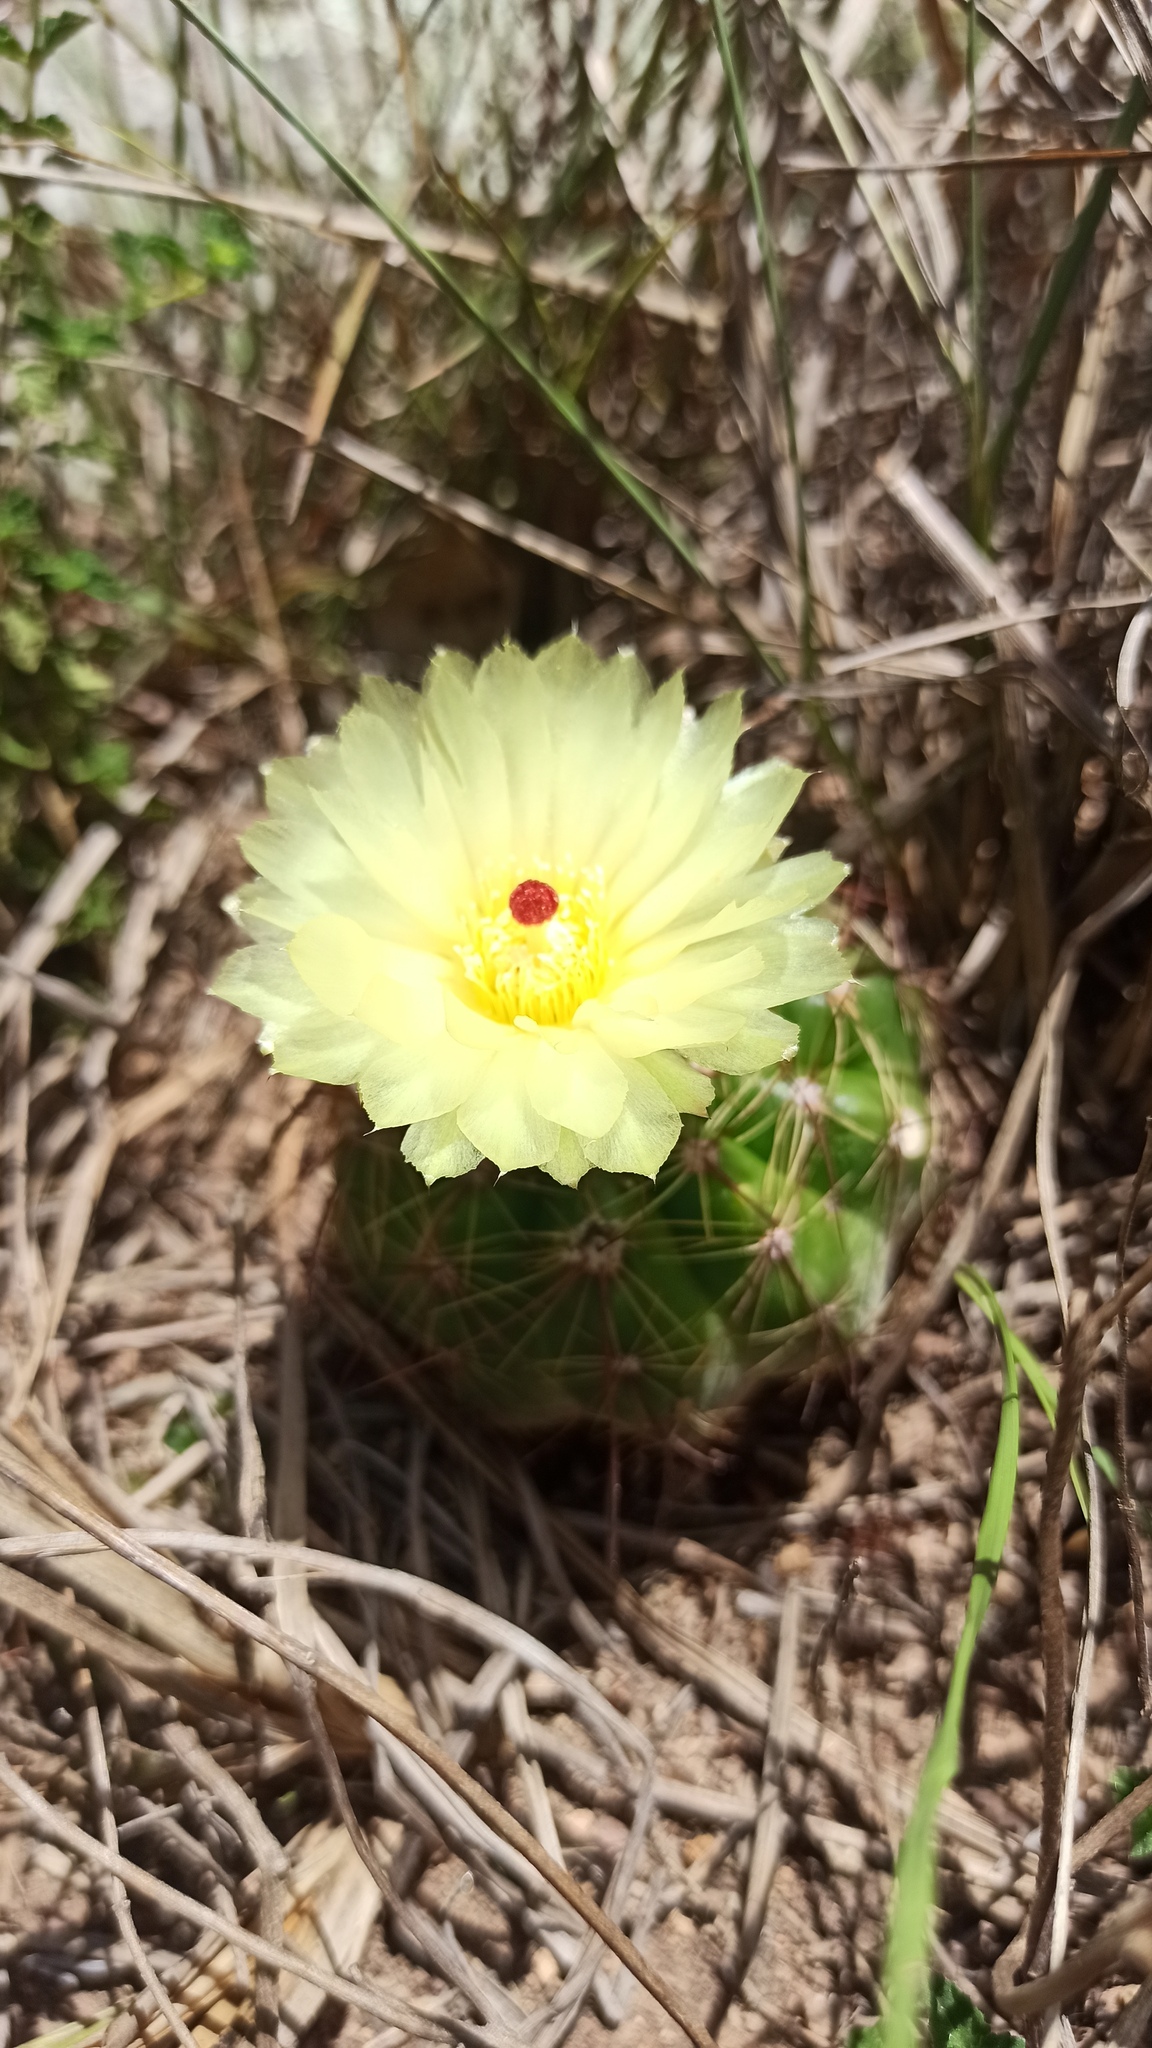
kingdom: Plantae
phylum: Tracheophyta
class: Magnoliopsida
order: Caryophyllales
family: Cactaceae
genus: Parodia
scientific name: Parodia ottonis
